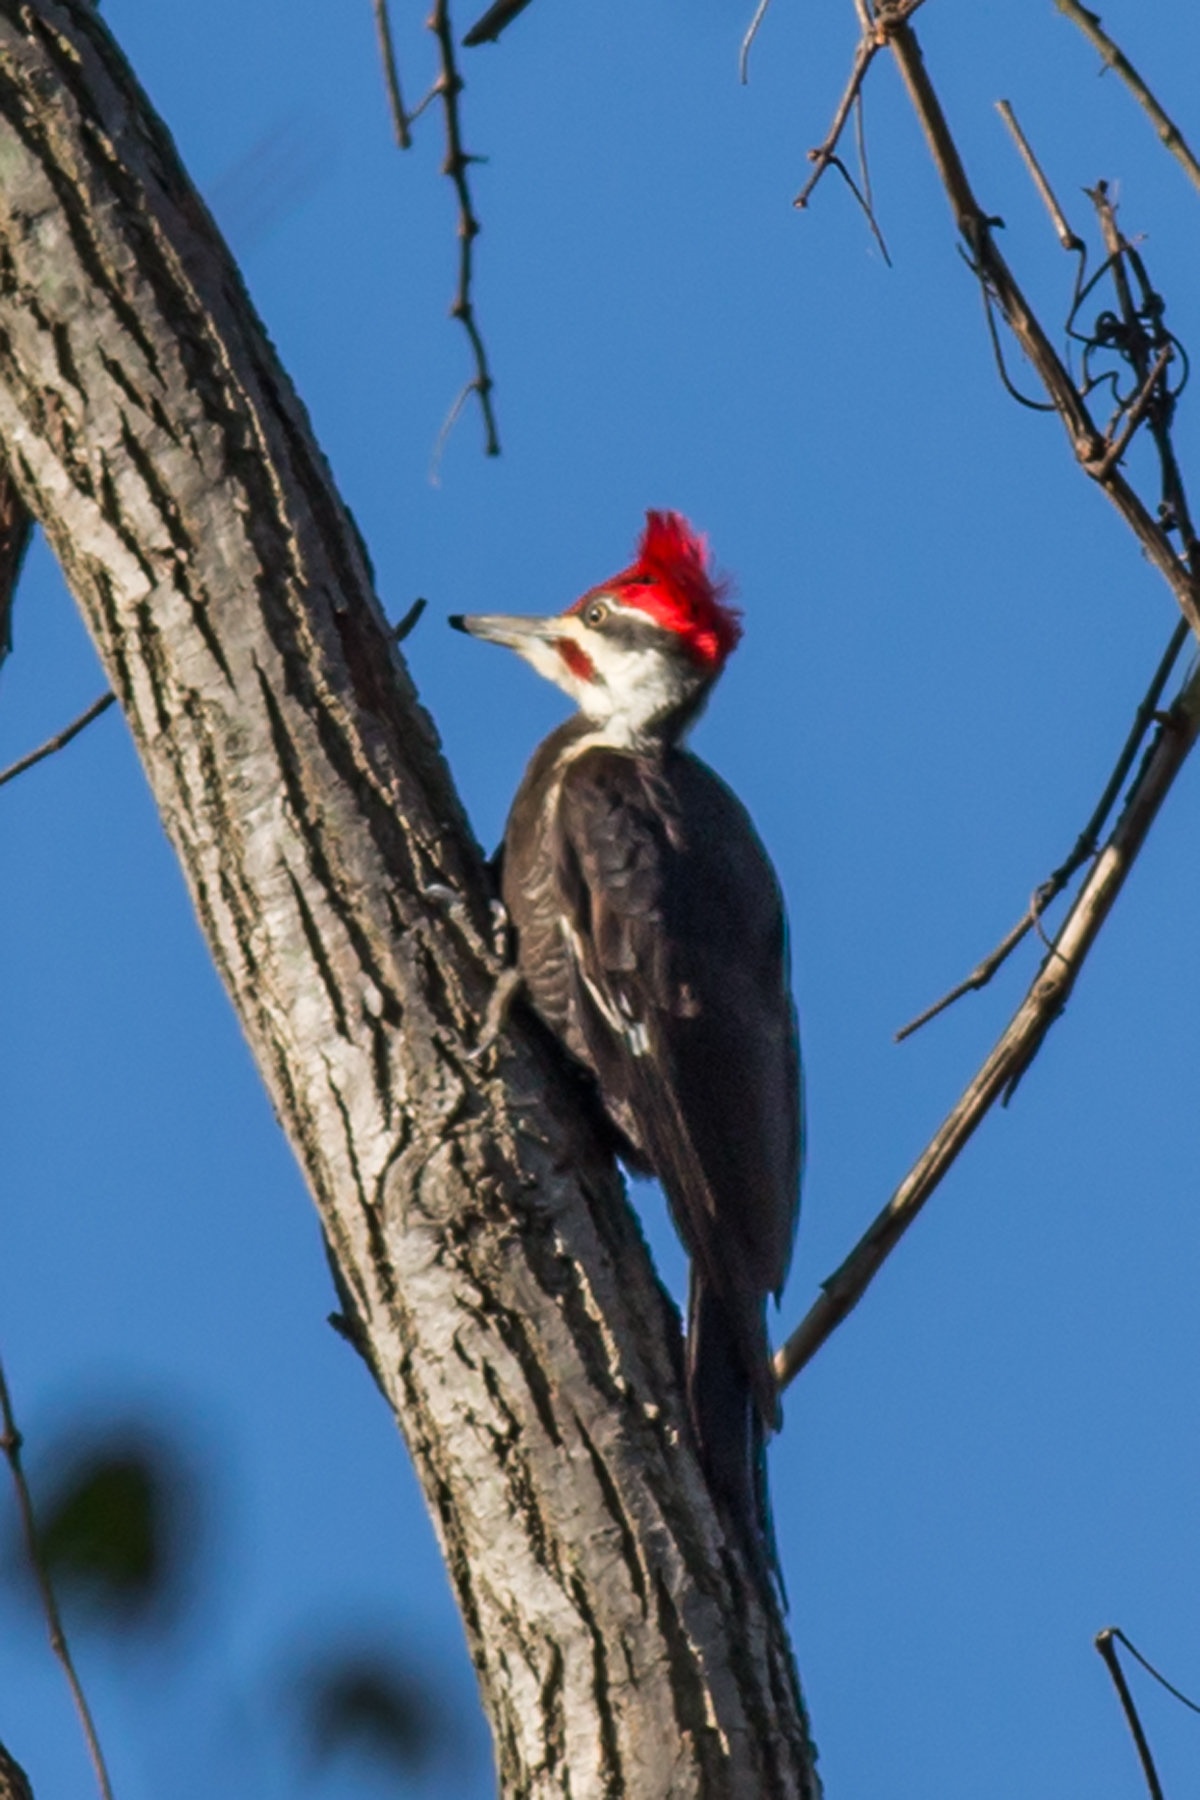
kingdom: Animalia
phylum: Chordata
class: Aves
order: Piciformes
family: Picidae
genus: Dryocopus
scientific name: Dryocopus pileatus
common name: Pileated woodpecker
